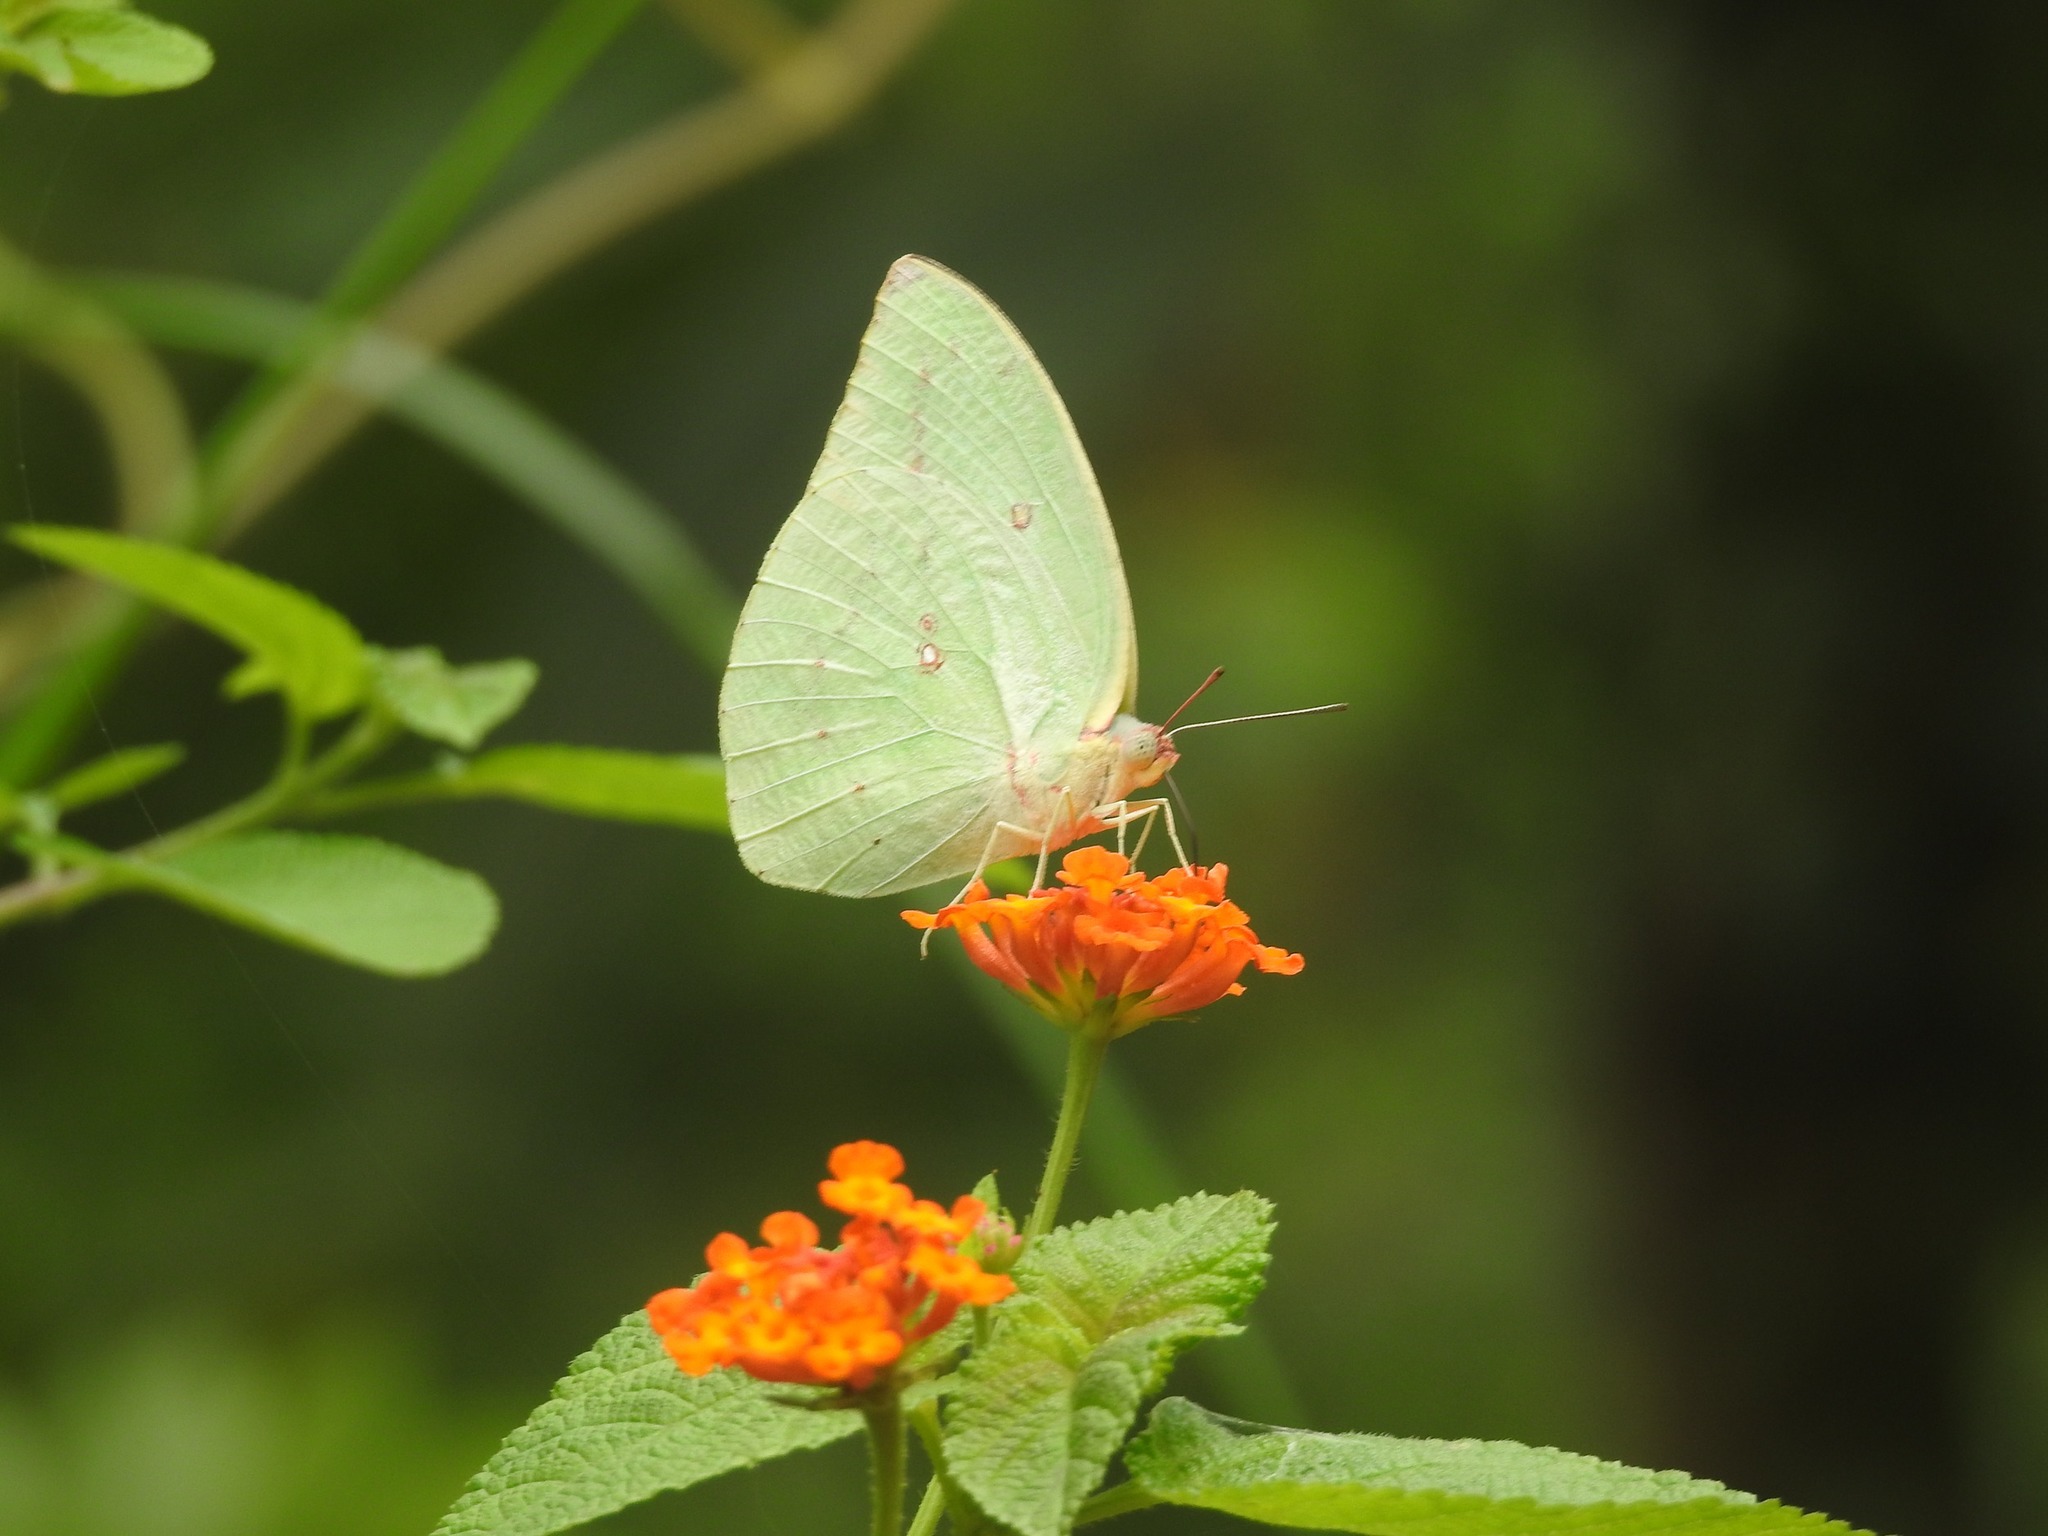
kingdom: Animalia
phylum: Arthropoda
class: Insecta
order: Lepidoptera
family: Pieridae
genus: Catopsilia
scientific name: Catopsilia pomona
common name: Common emigrant
